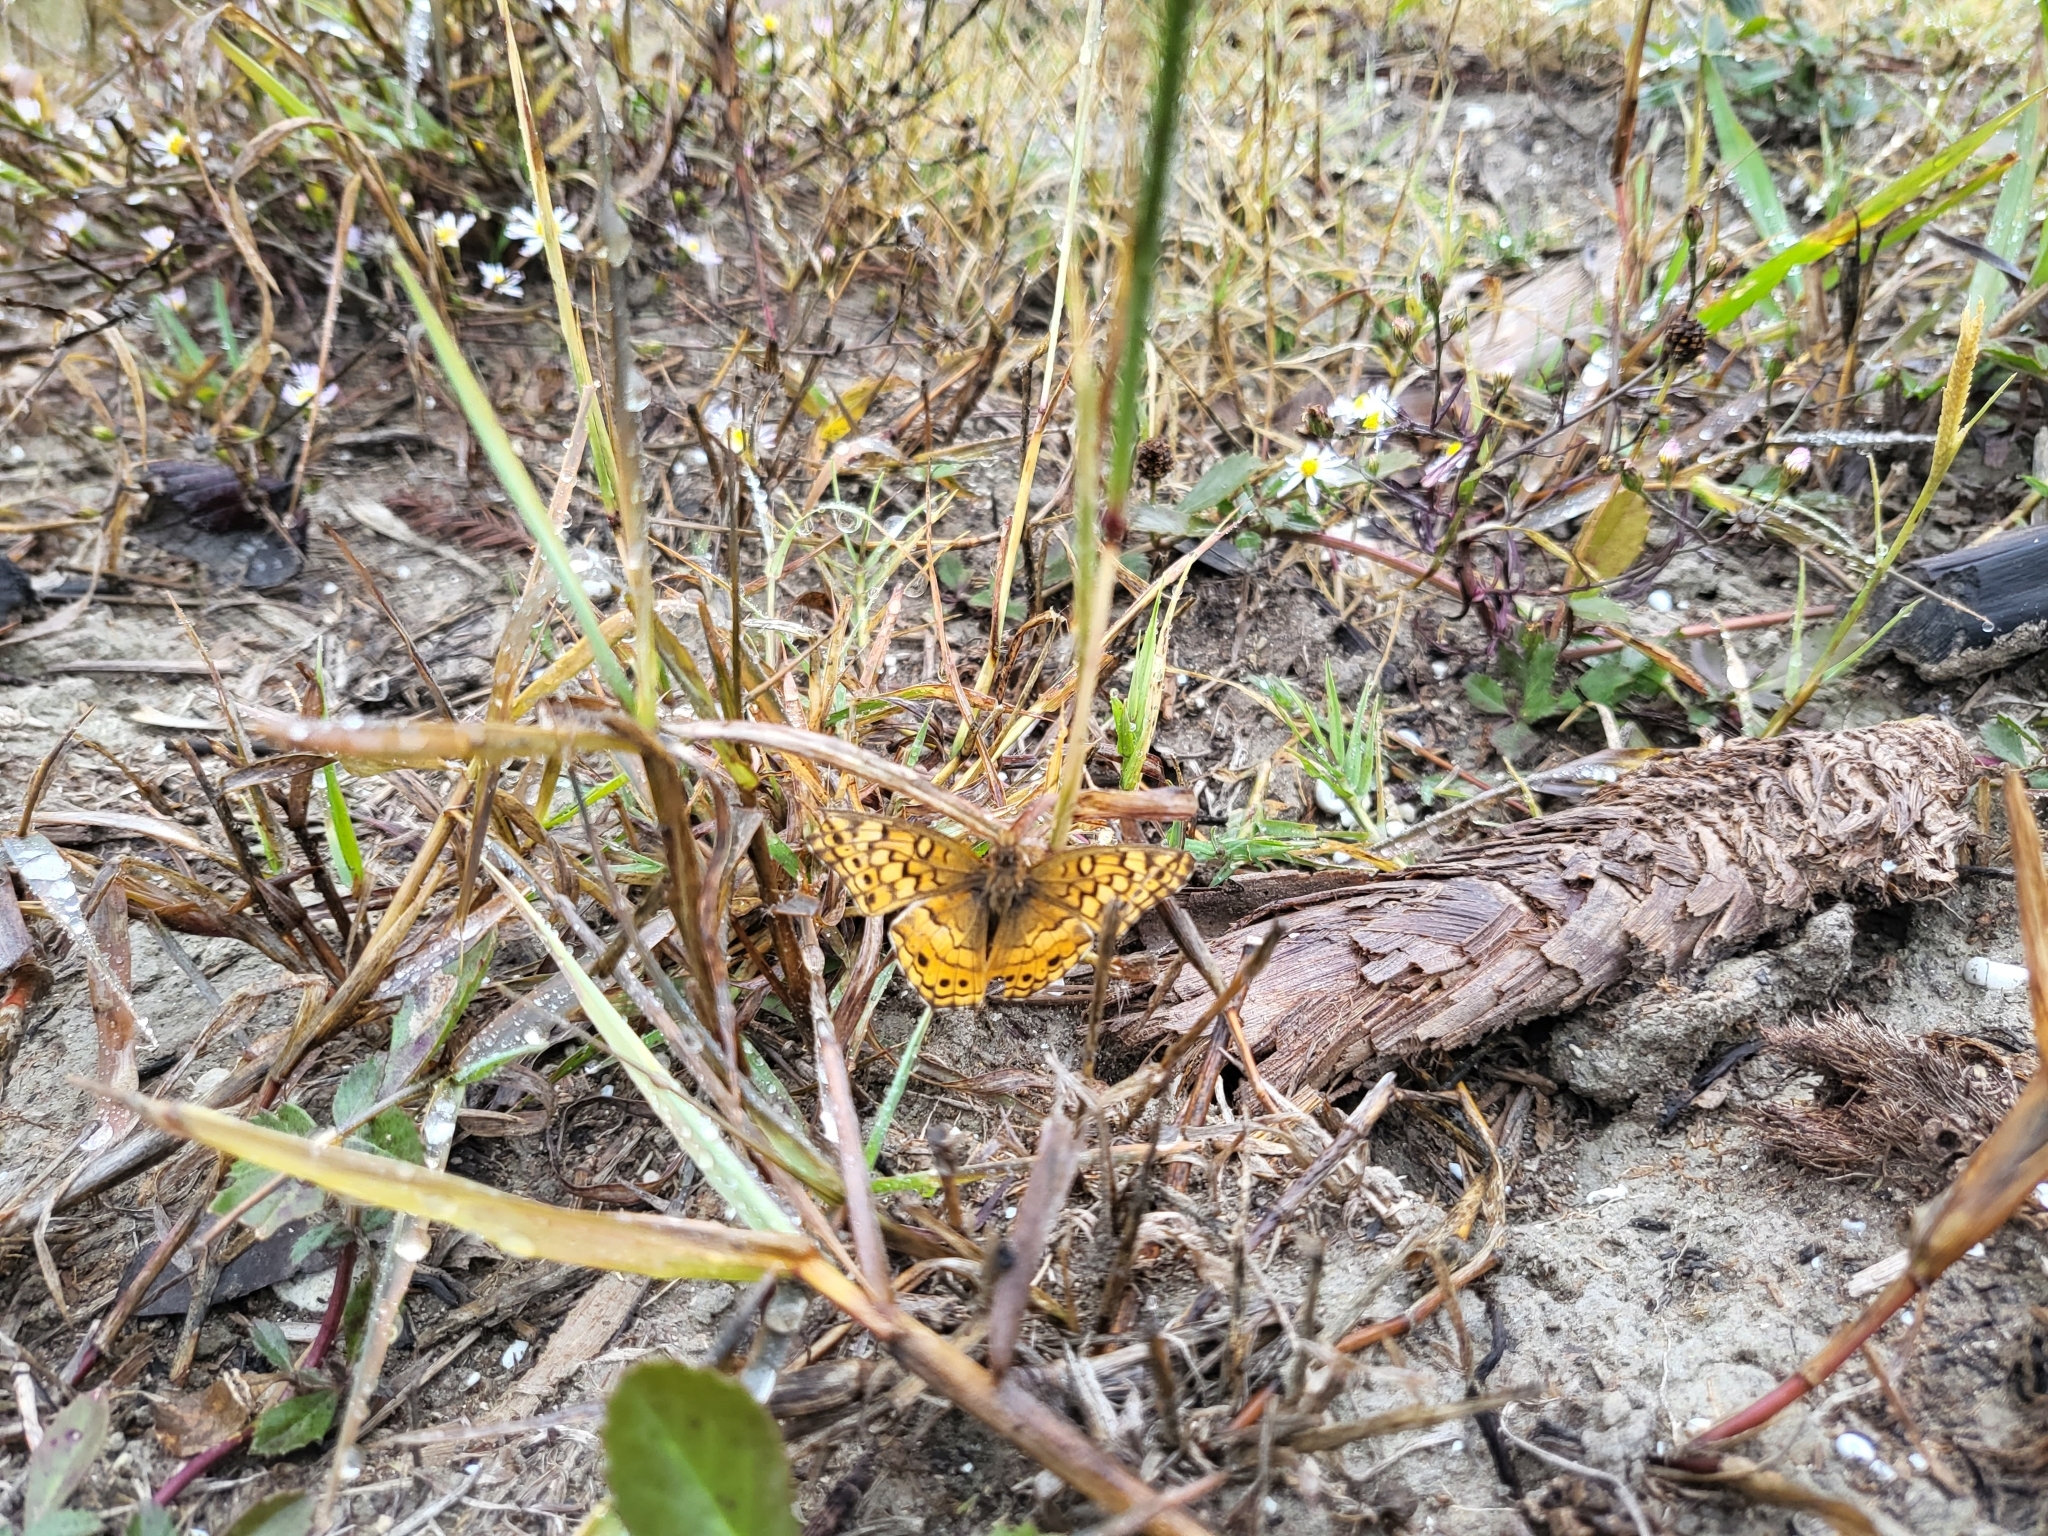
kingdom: Animalia
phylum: Arthropoda
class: Insecta
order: Lepidoptera
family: Nymphalidae
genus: Euptoieta
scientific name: Euptoieta claudia
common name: Variegated fritillary
